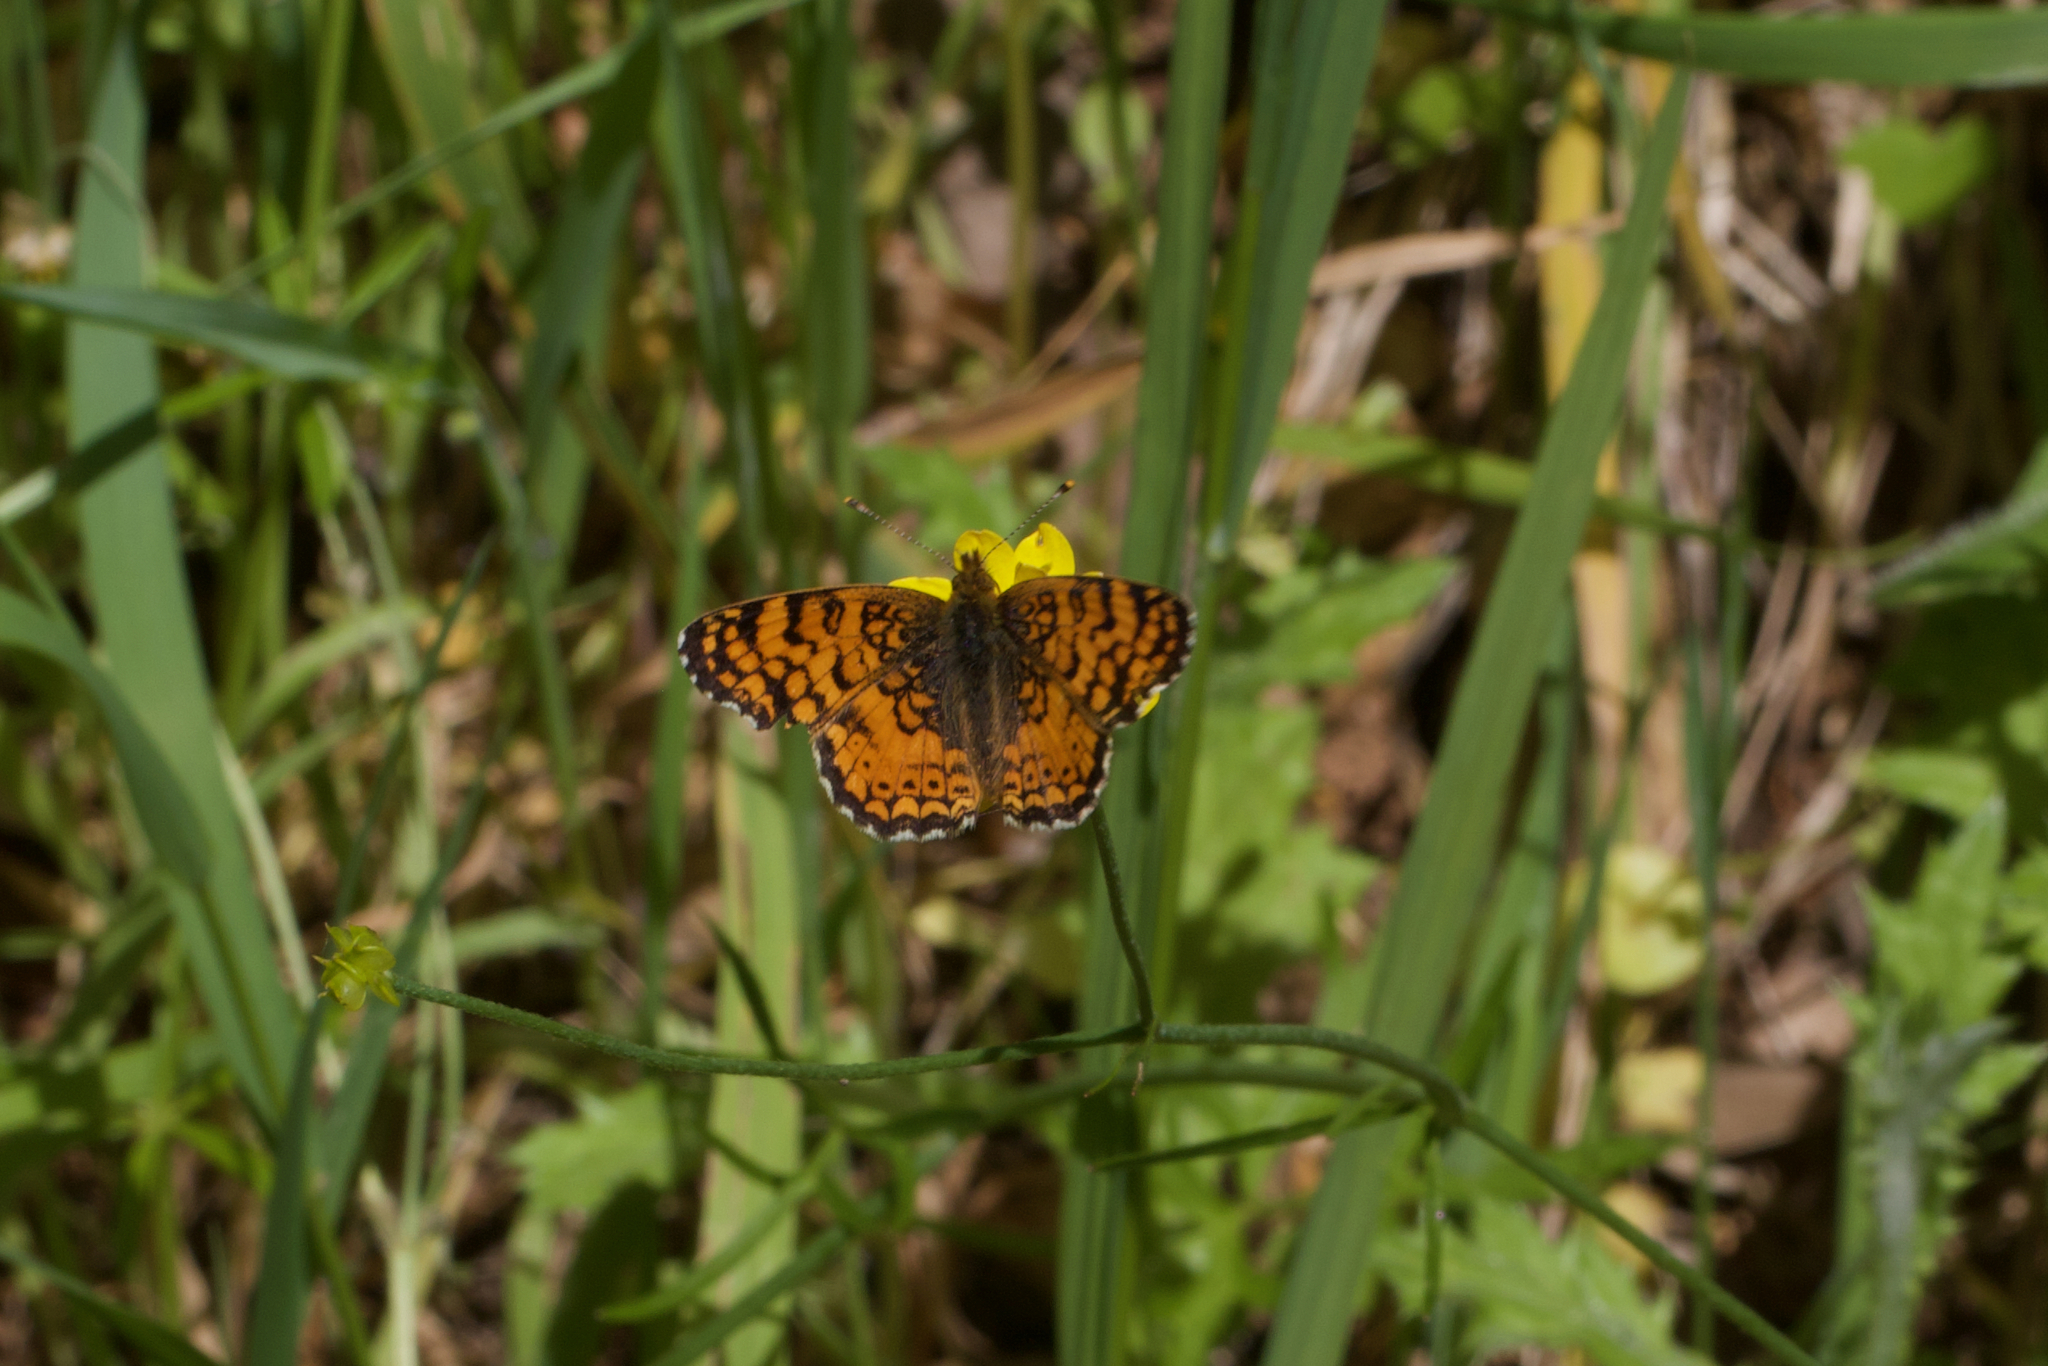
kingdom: Animalia
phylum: Arthropoda
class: Insecta
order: Lepidoptera
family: Nymphalidae
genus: Eresia
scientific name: Eresia aveyrona
